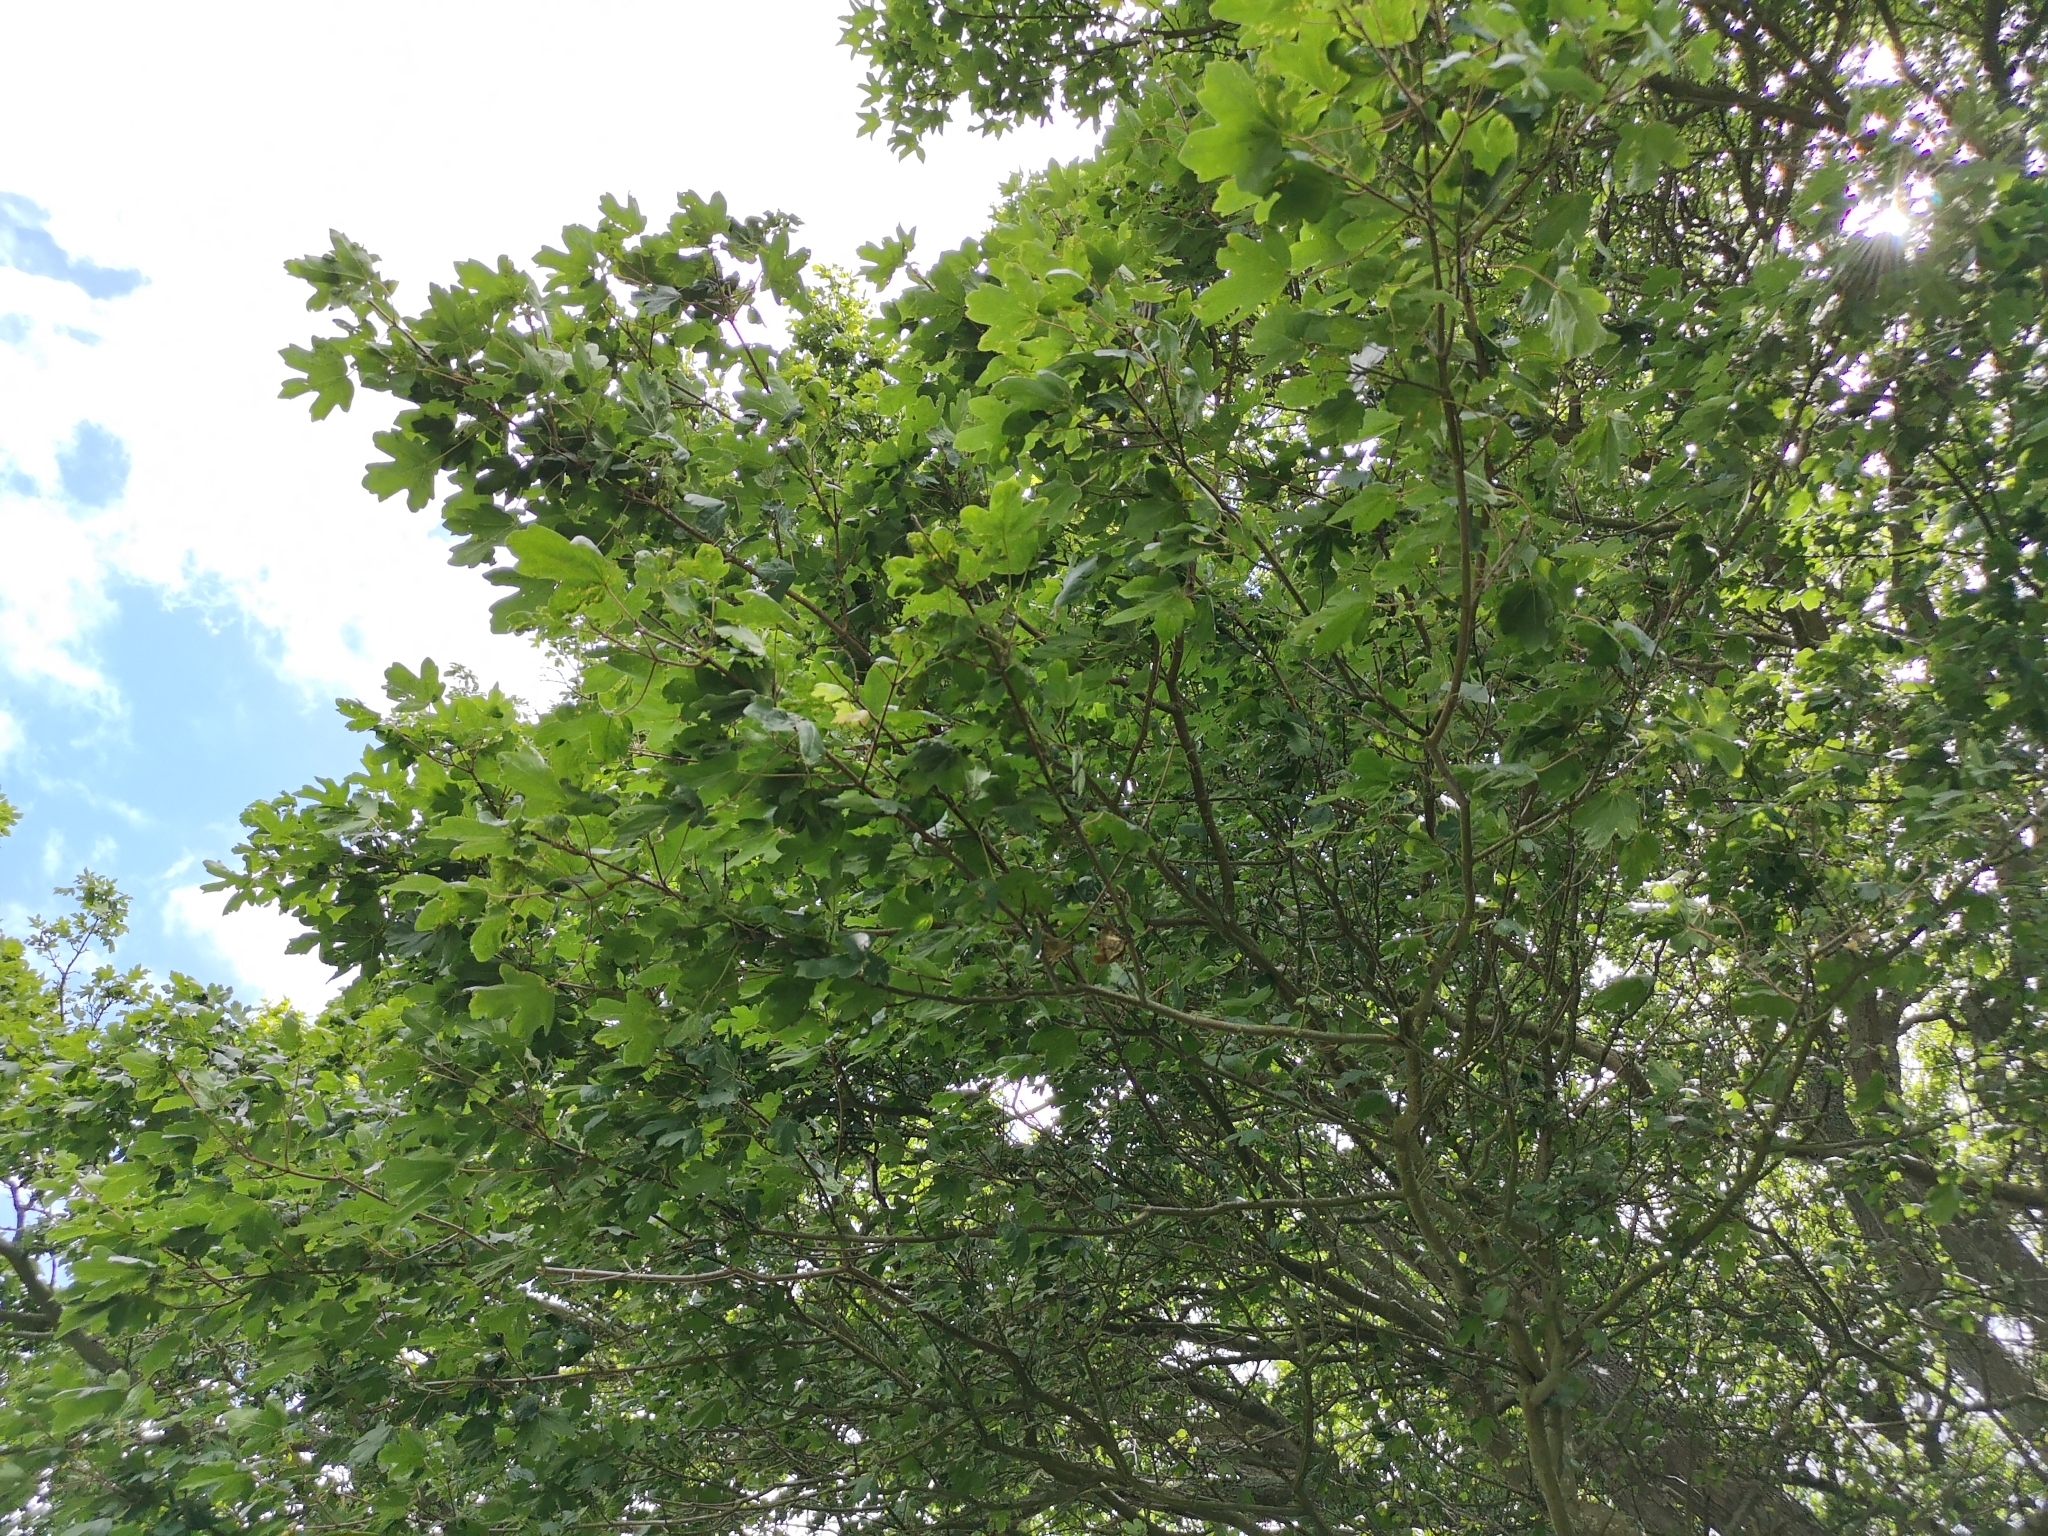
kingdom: Plantae
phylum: Tracheophyta
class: Magnoliopsida
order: Sapindales
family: Sapindaceae
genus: Acer
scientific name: Acer campestre
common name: Field maple
